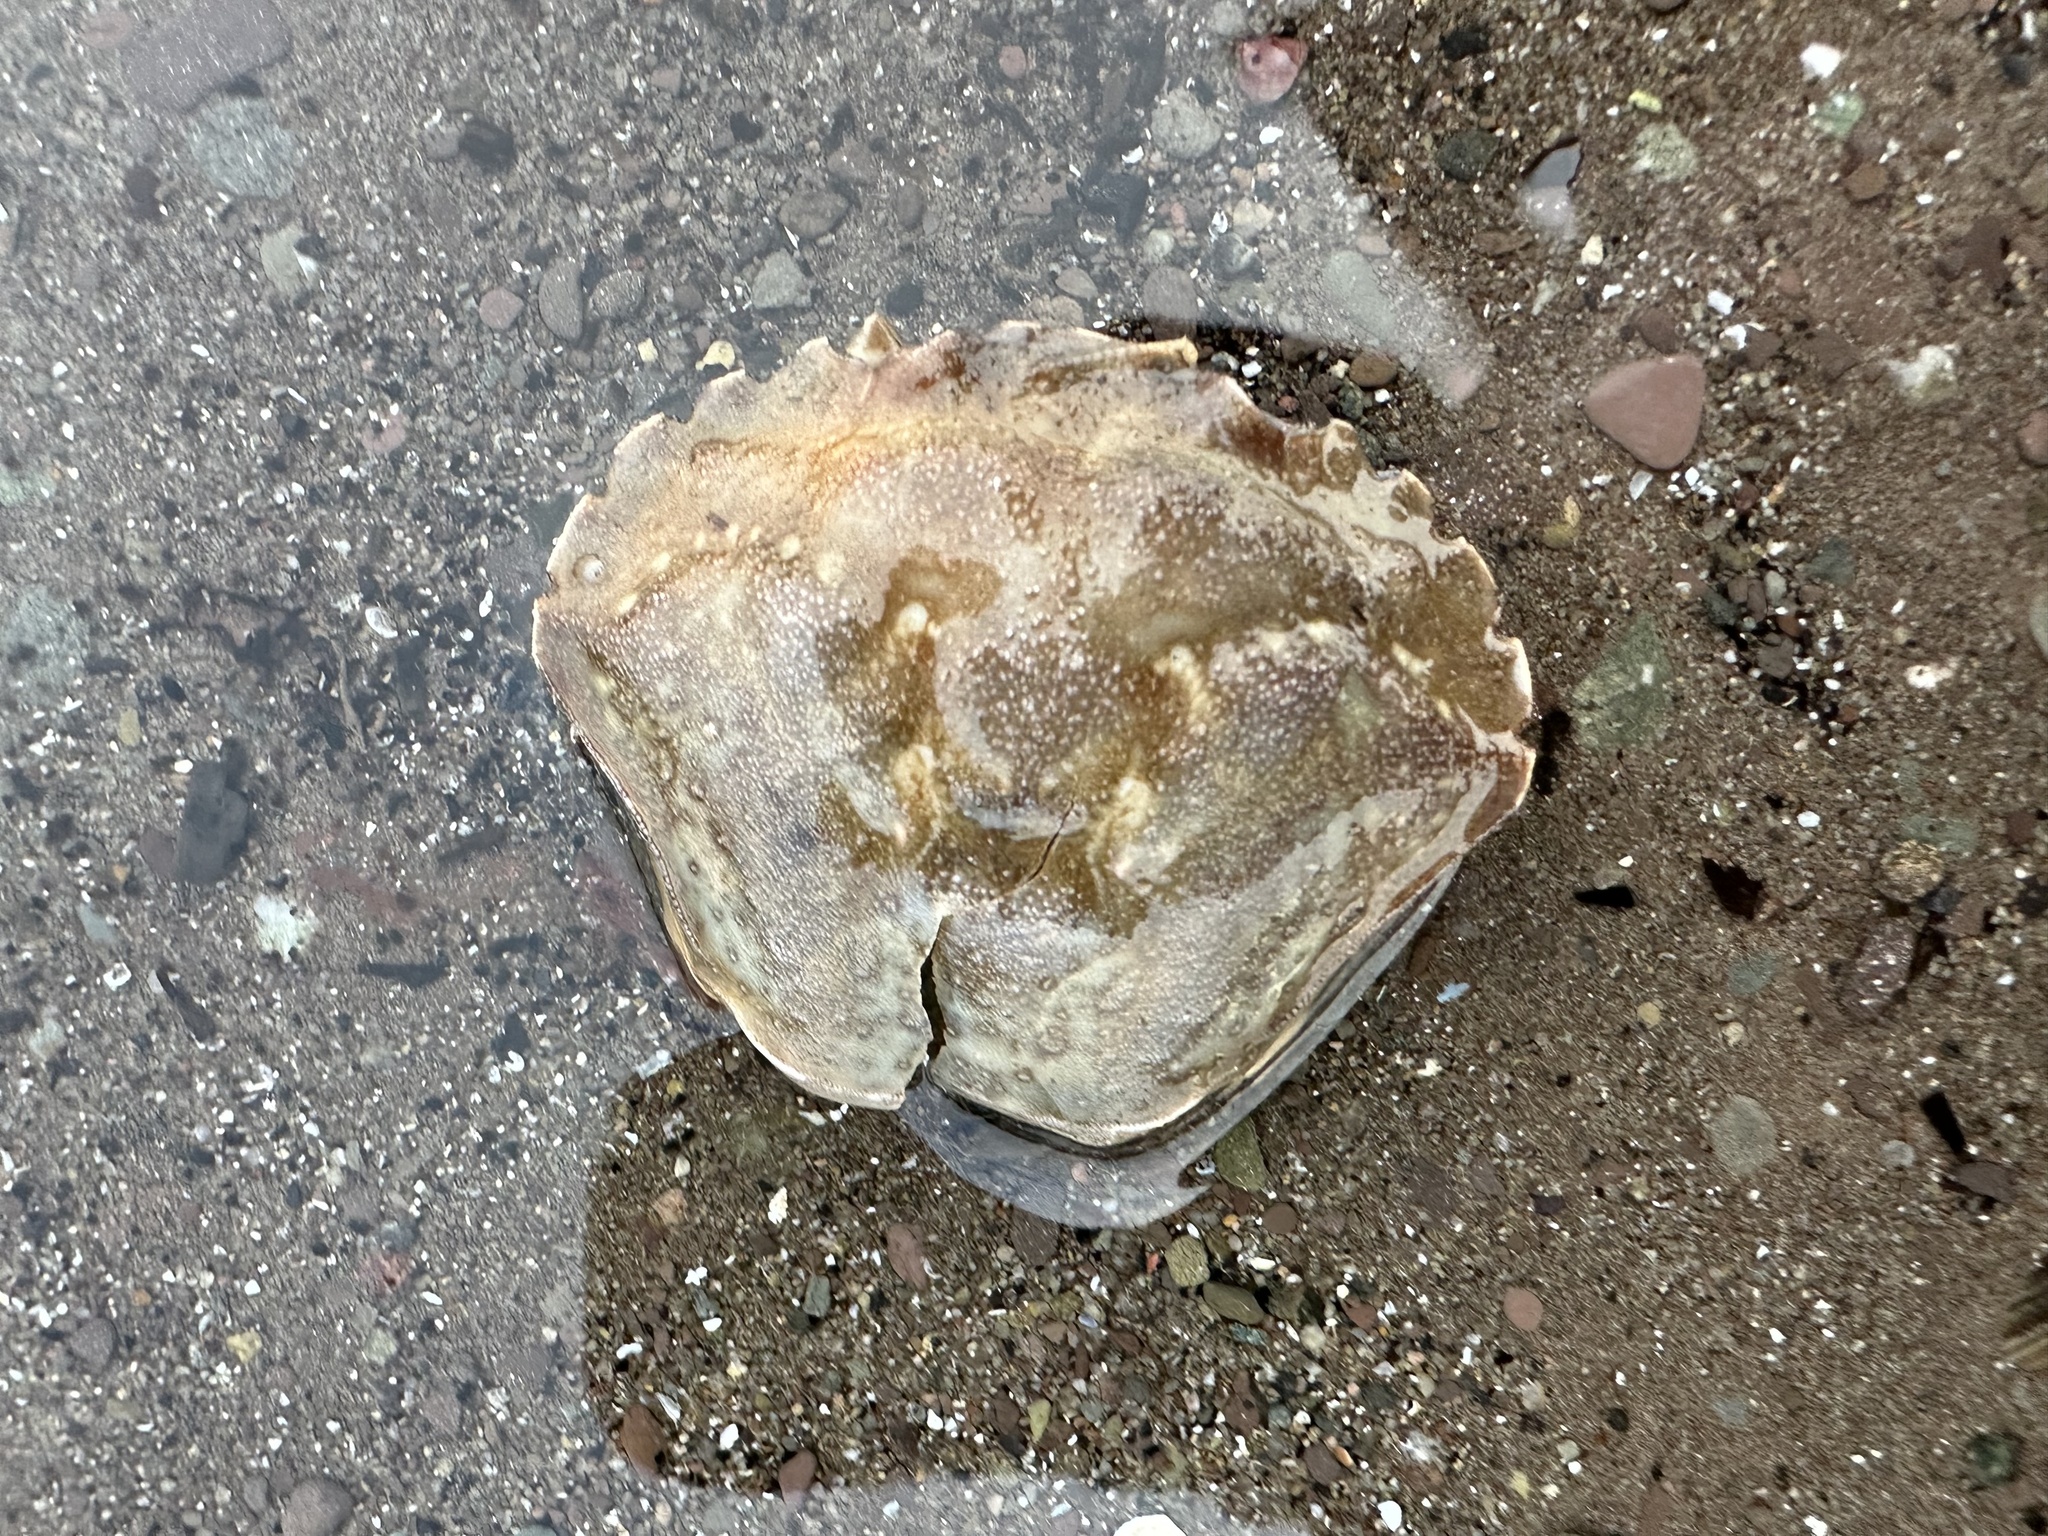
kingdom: Animalia
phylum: Arthropoda
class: Malacostraca
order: Decapoda
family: Carcinidae
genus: Carcinus
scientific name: Carcinus maenas
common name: European green crab
